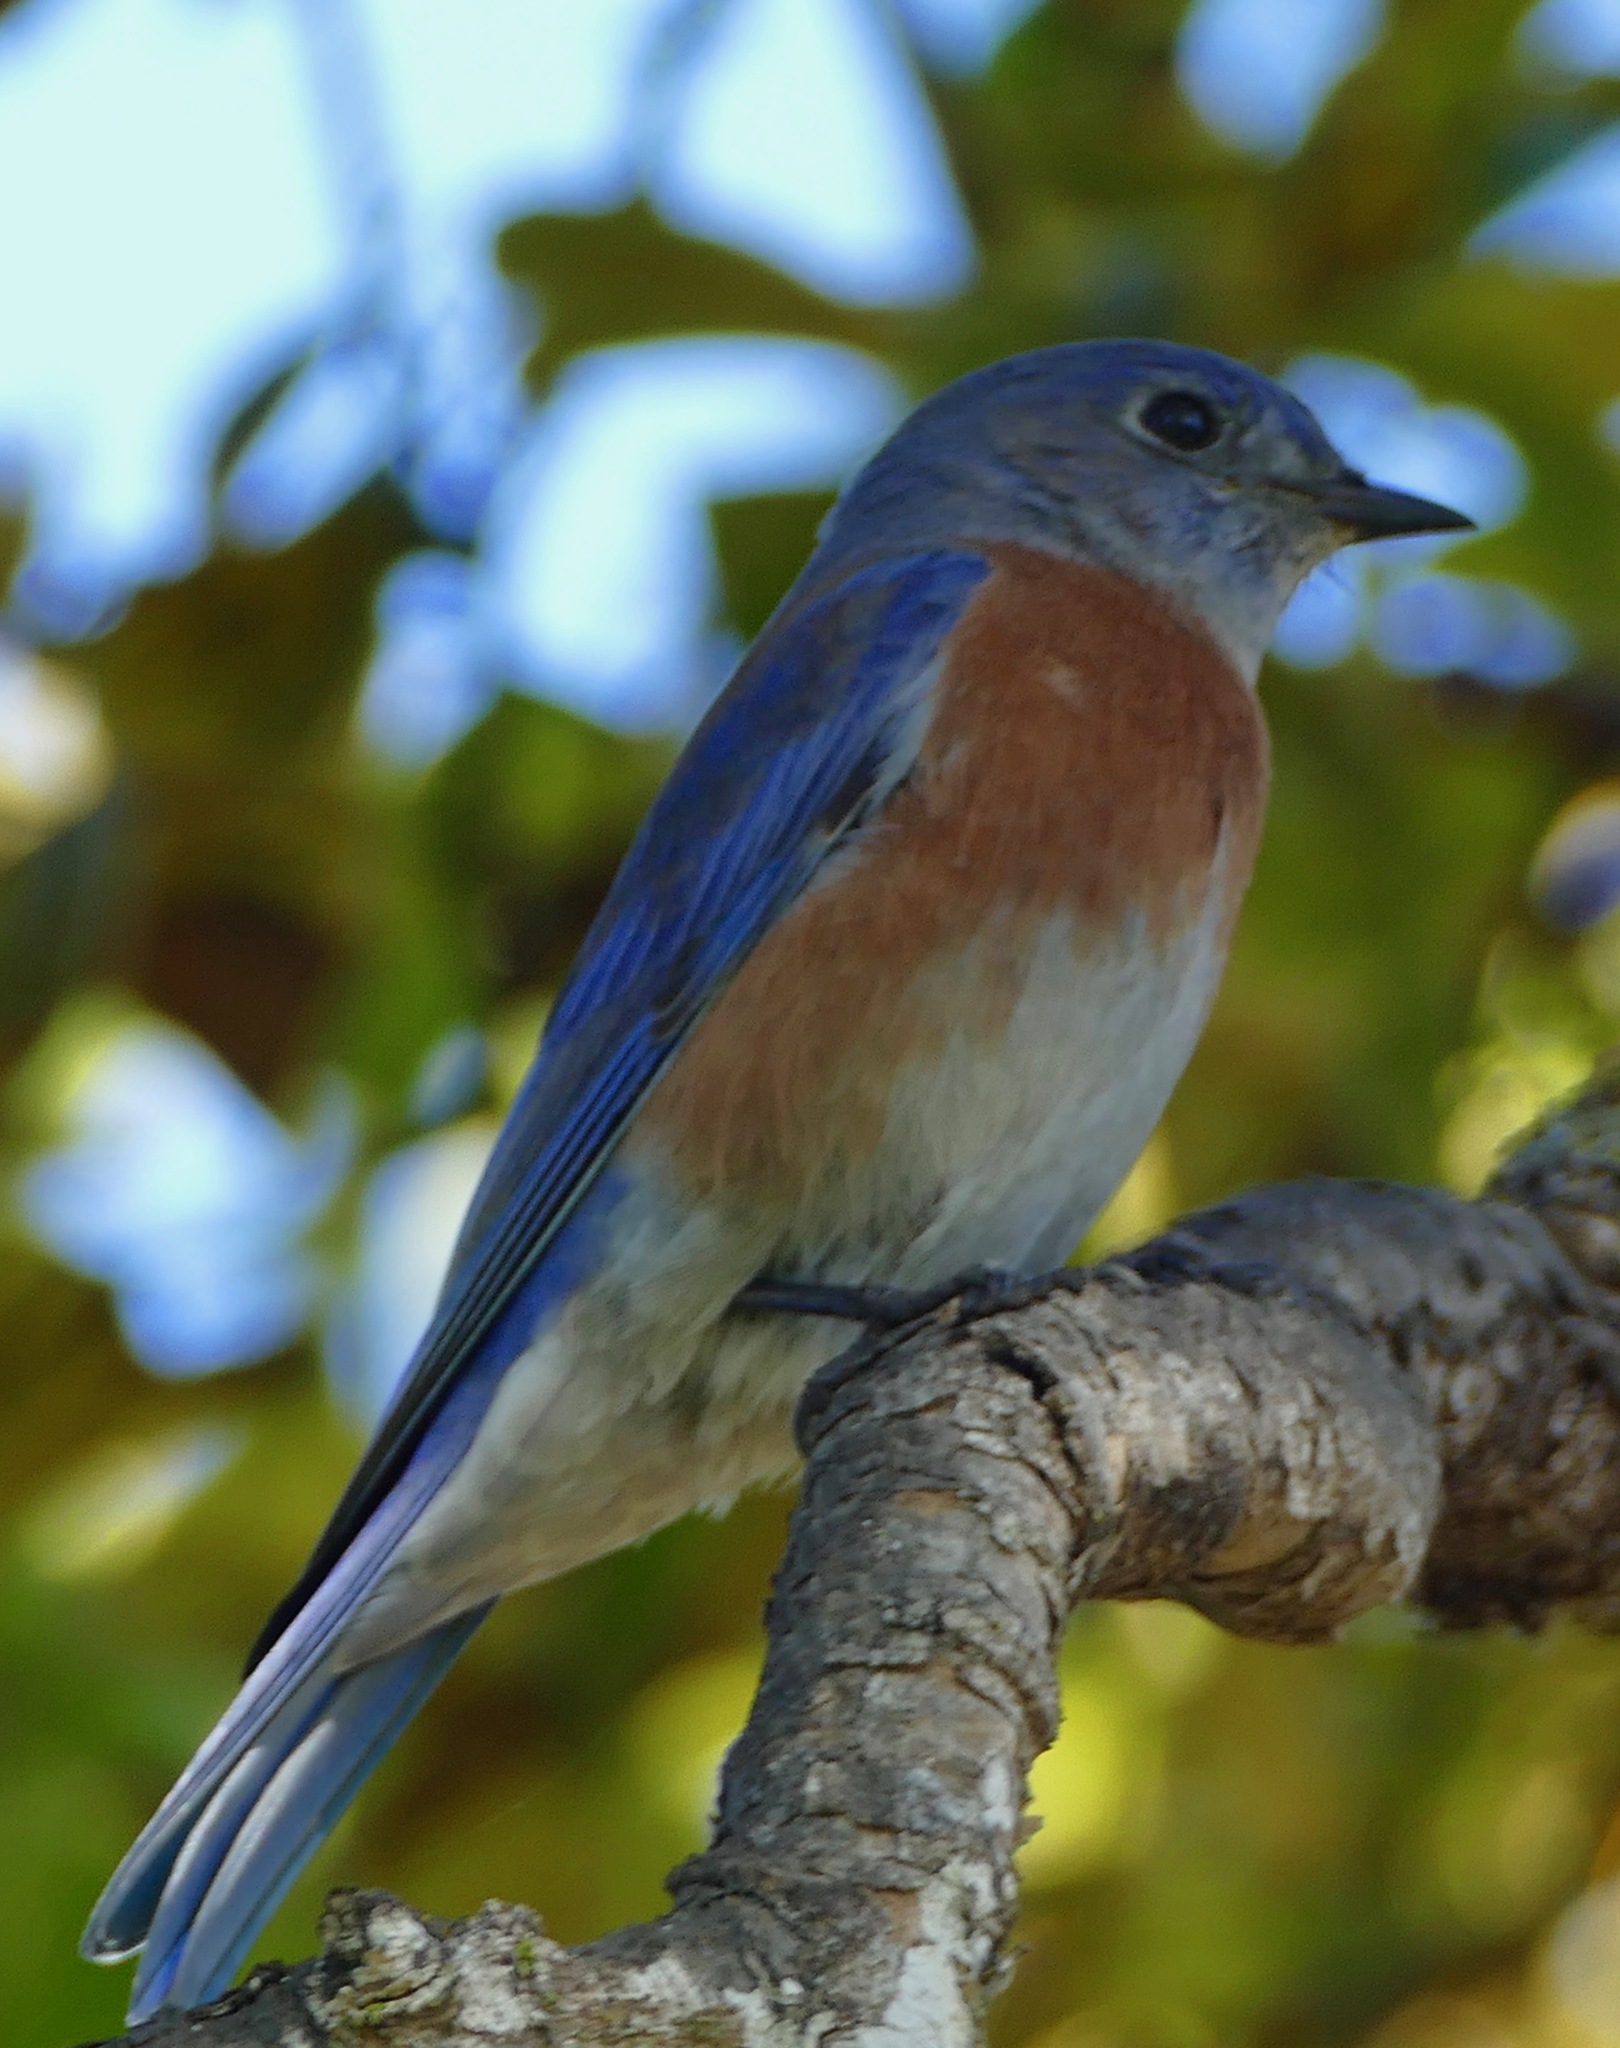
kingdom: Animalia
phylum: Chordata
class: Aves
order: Passeriformes
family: Turdidae
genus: Sialia
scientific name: Sialia mexicana
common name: Western bluebird
